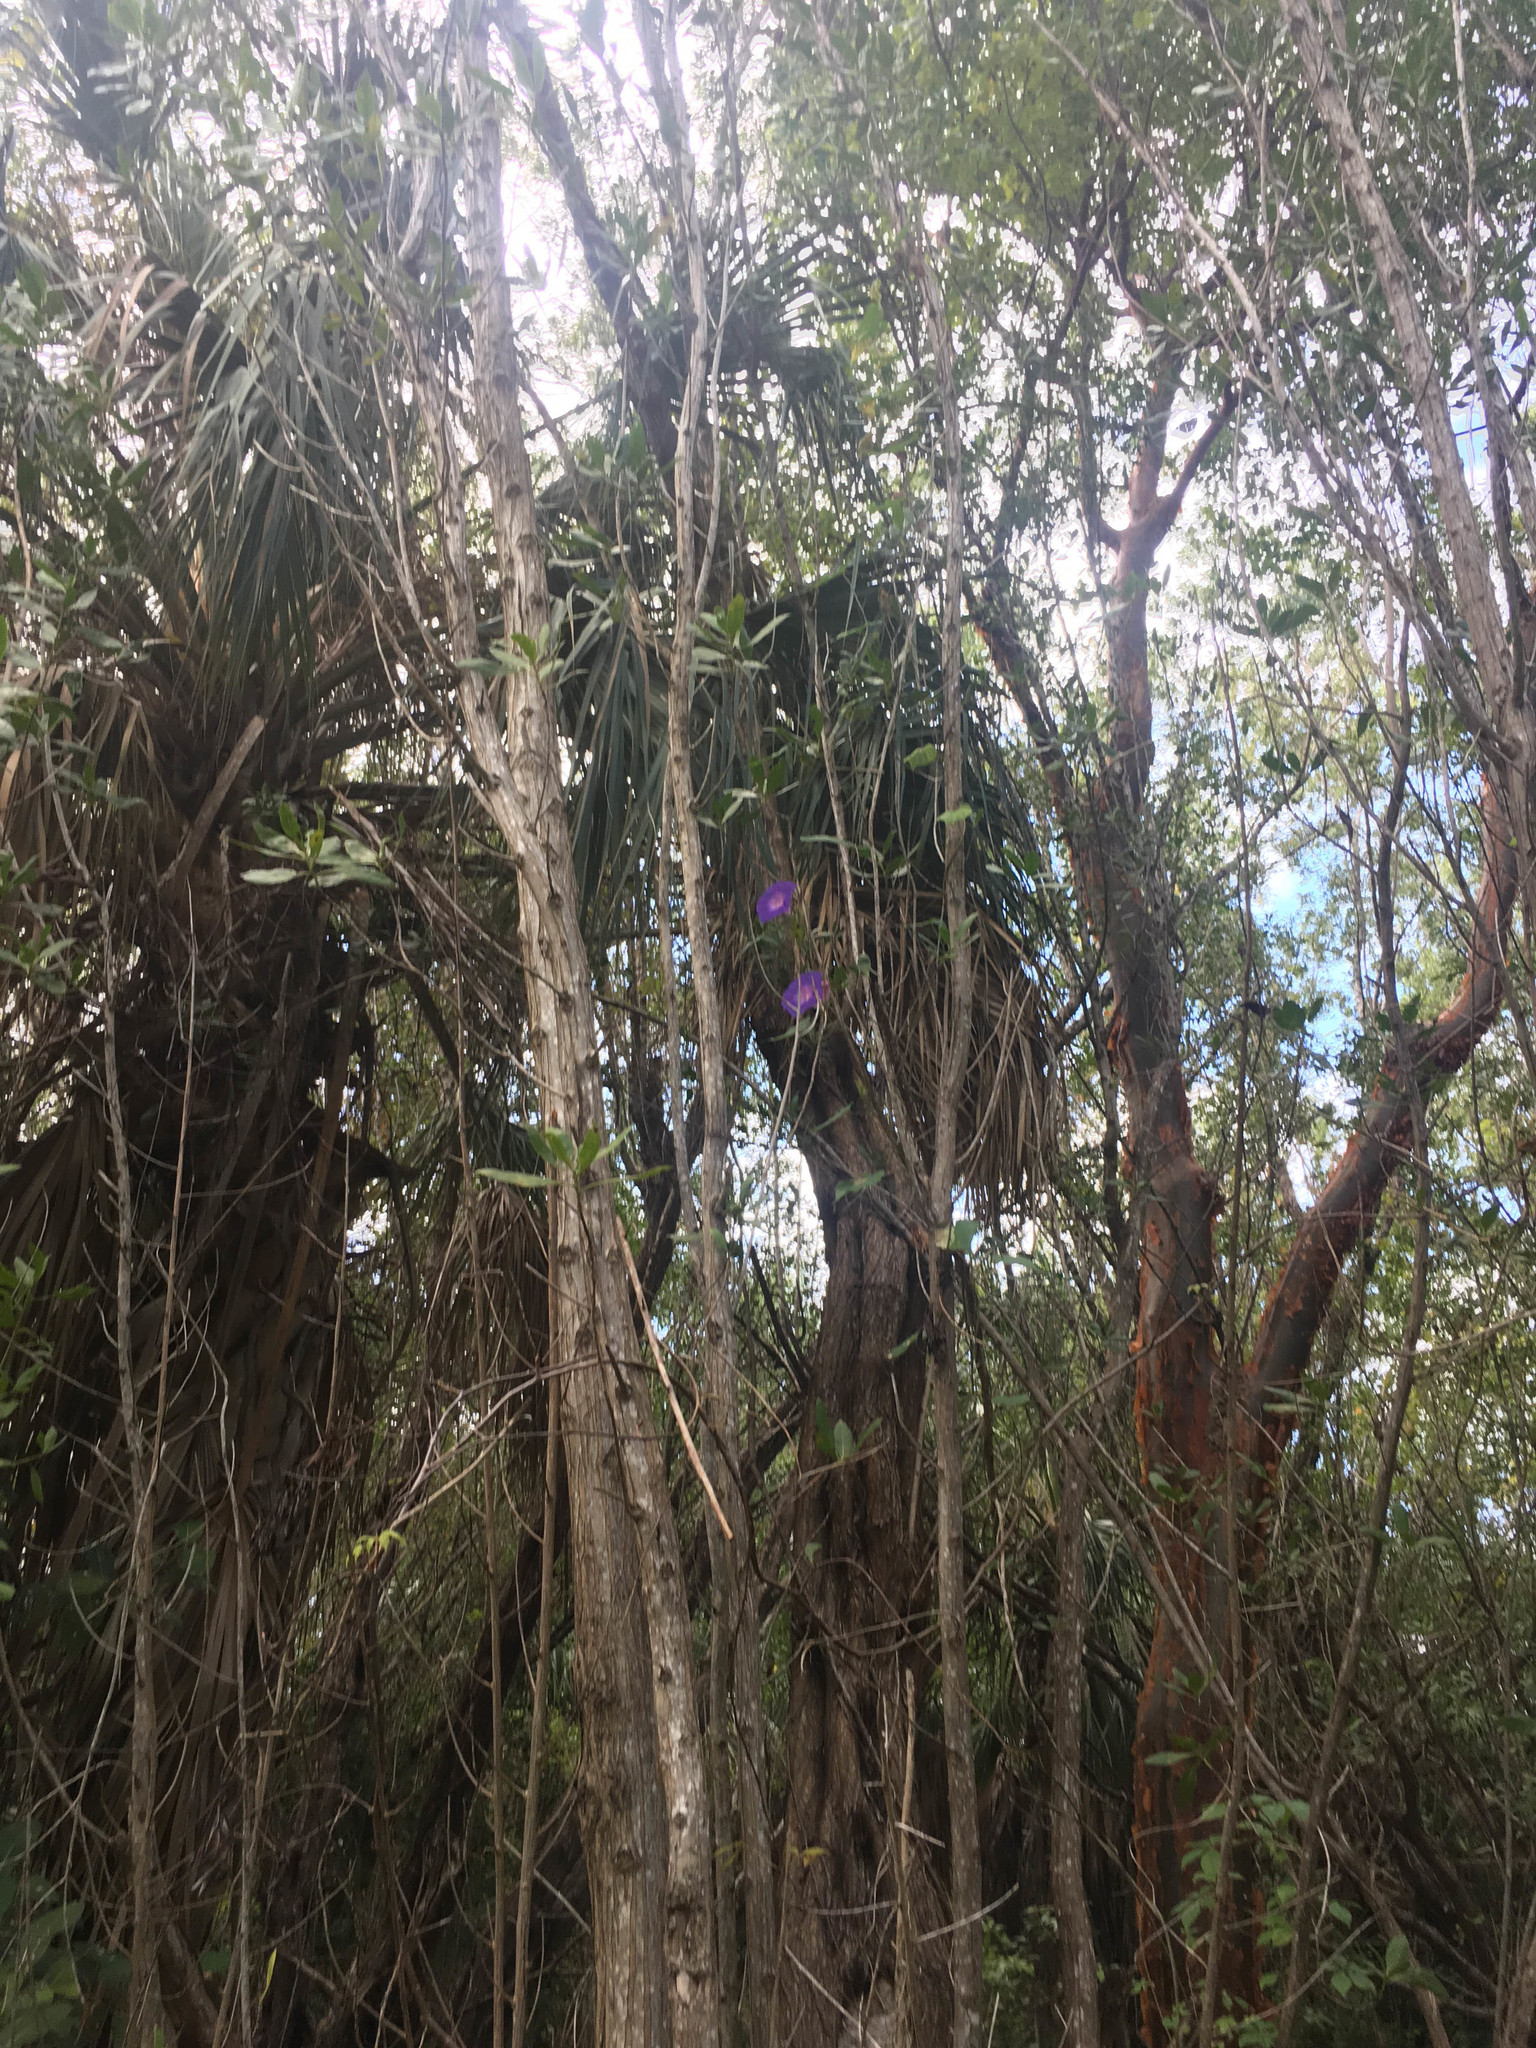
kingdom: Plantae
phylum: Tracheophyta
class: Magnoliopsida
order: Solanales
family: Convolvulaceae
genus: Ipomoea
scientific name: Ipomoea indica
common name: Blue dawnflower
